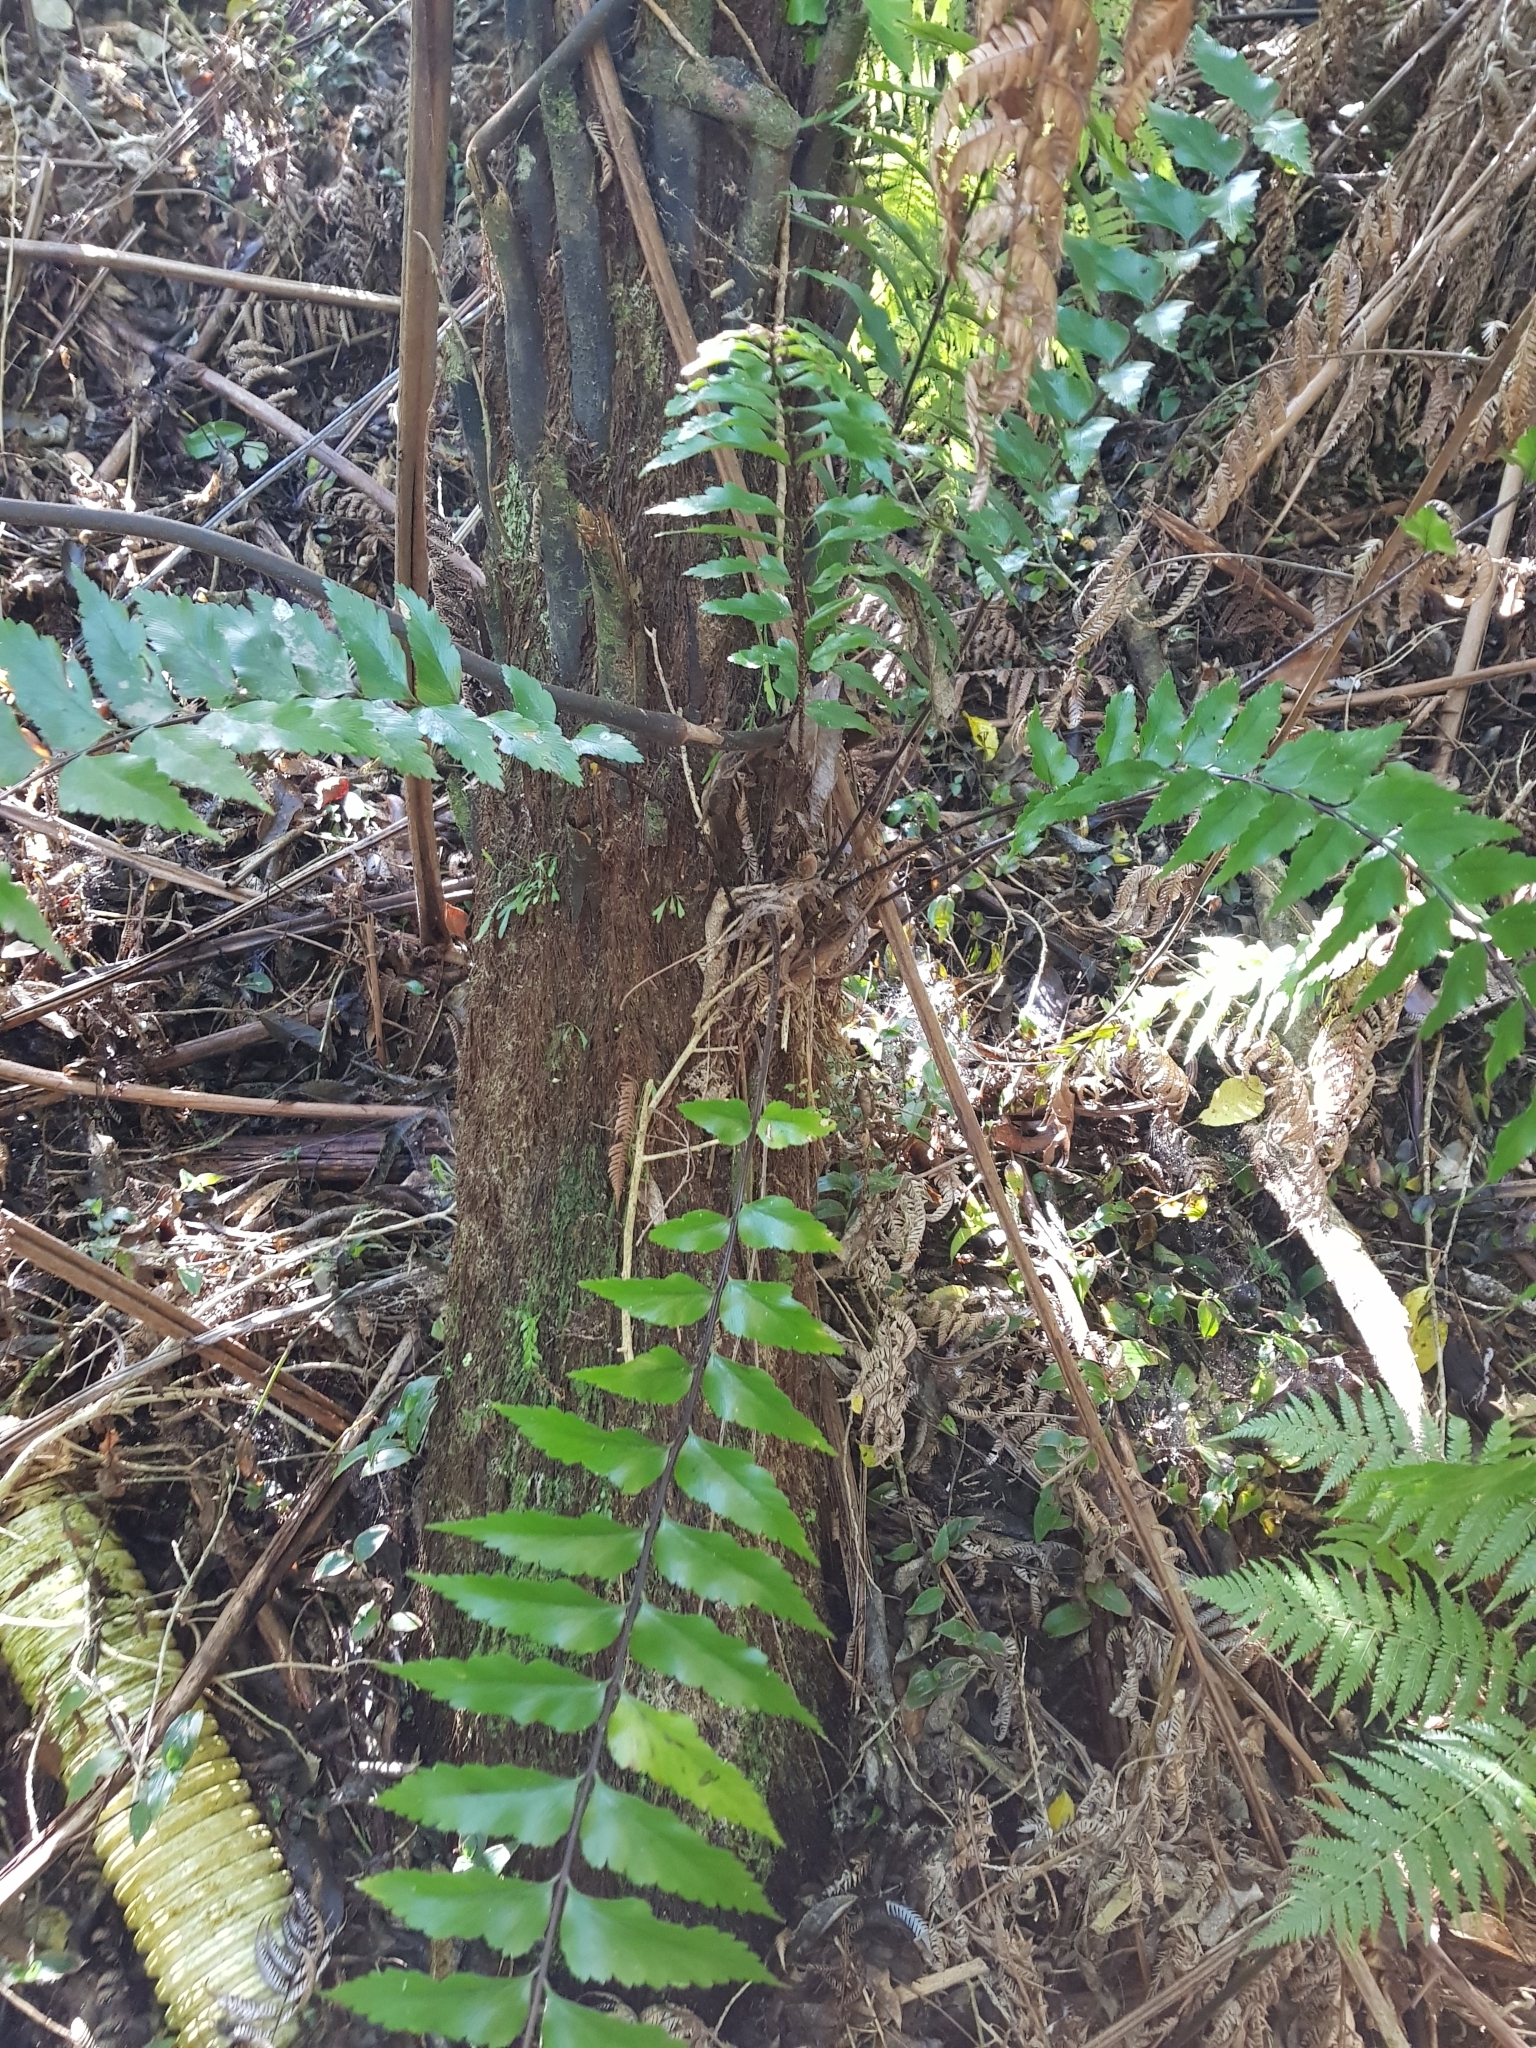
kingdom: Plantae
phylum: Tracheophyta
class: Polypodiopsida
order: Polypodiales
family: Aspleniaceae
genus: Asplenium
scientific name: Asplenium polyodon
